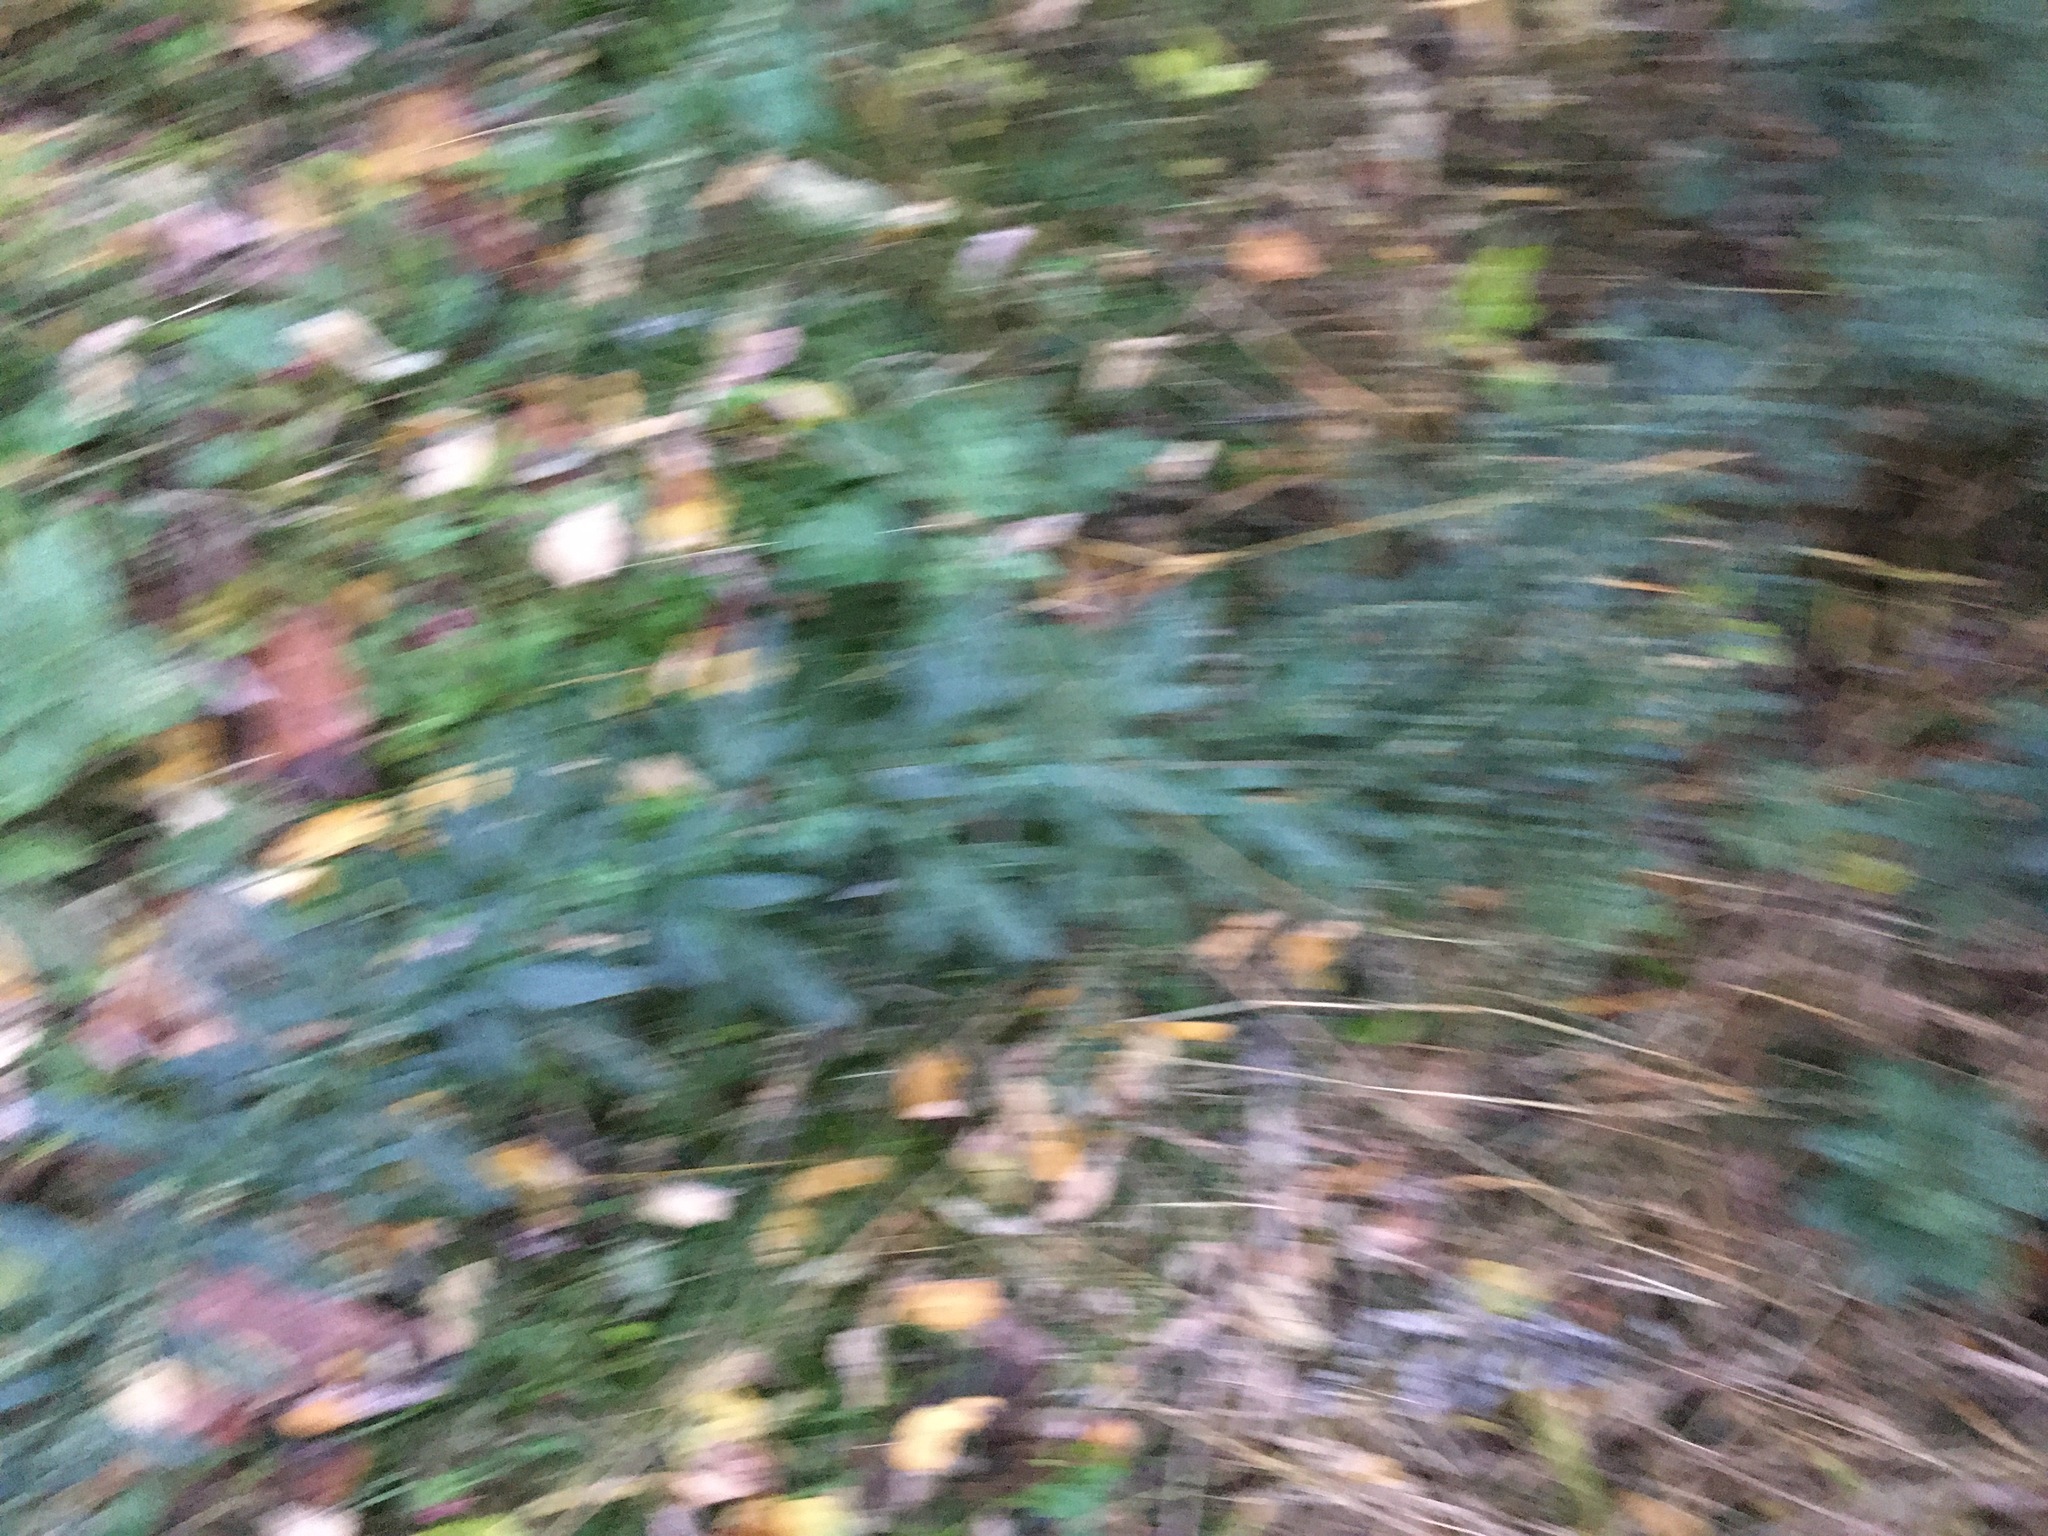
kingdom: Plantae
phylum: Tracheophyta
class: Magnoliopsida
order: Asterales
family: Asteraceae
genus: Artemisia
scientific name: Artemisia vulgaris
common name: Mugwort
